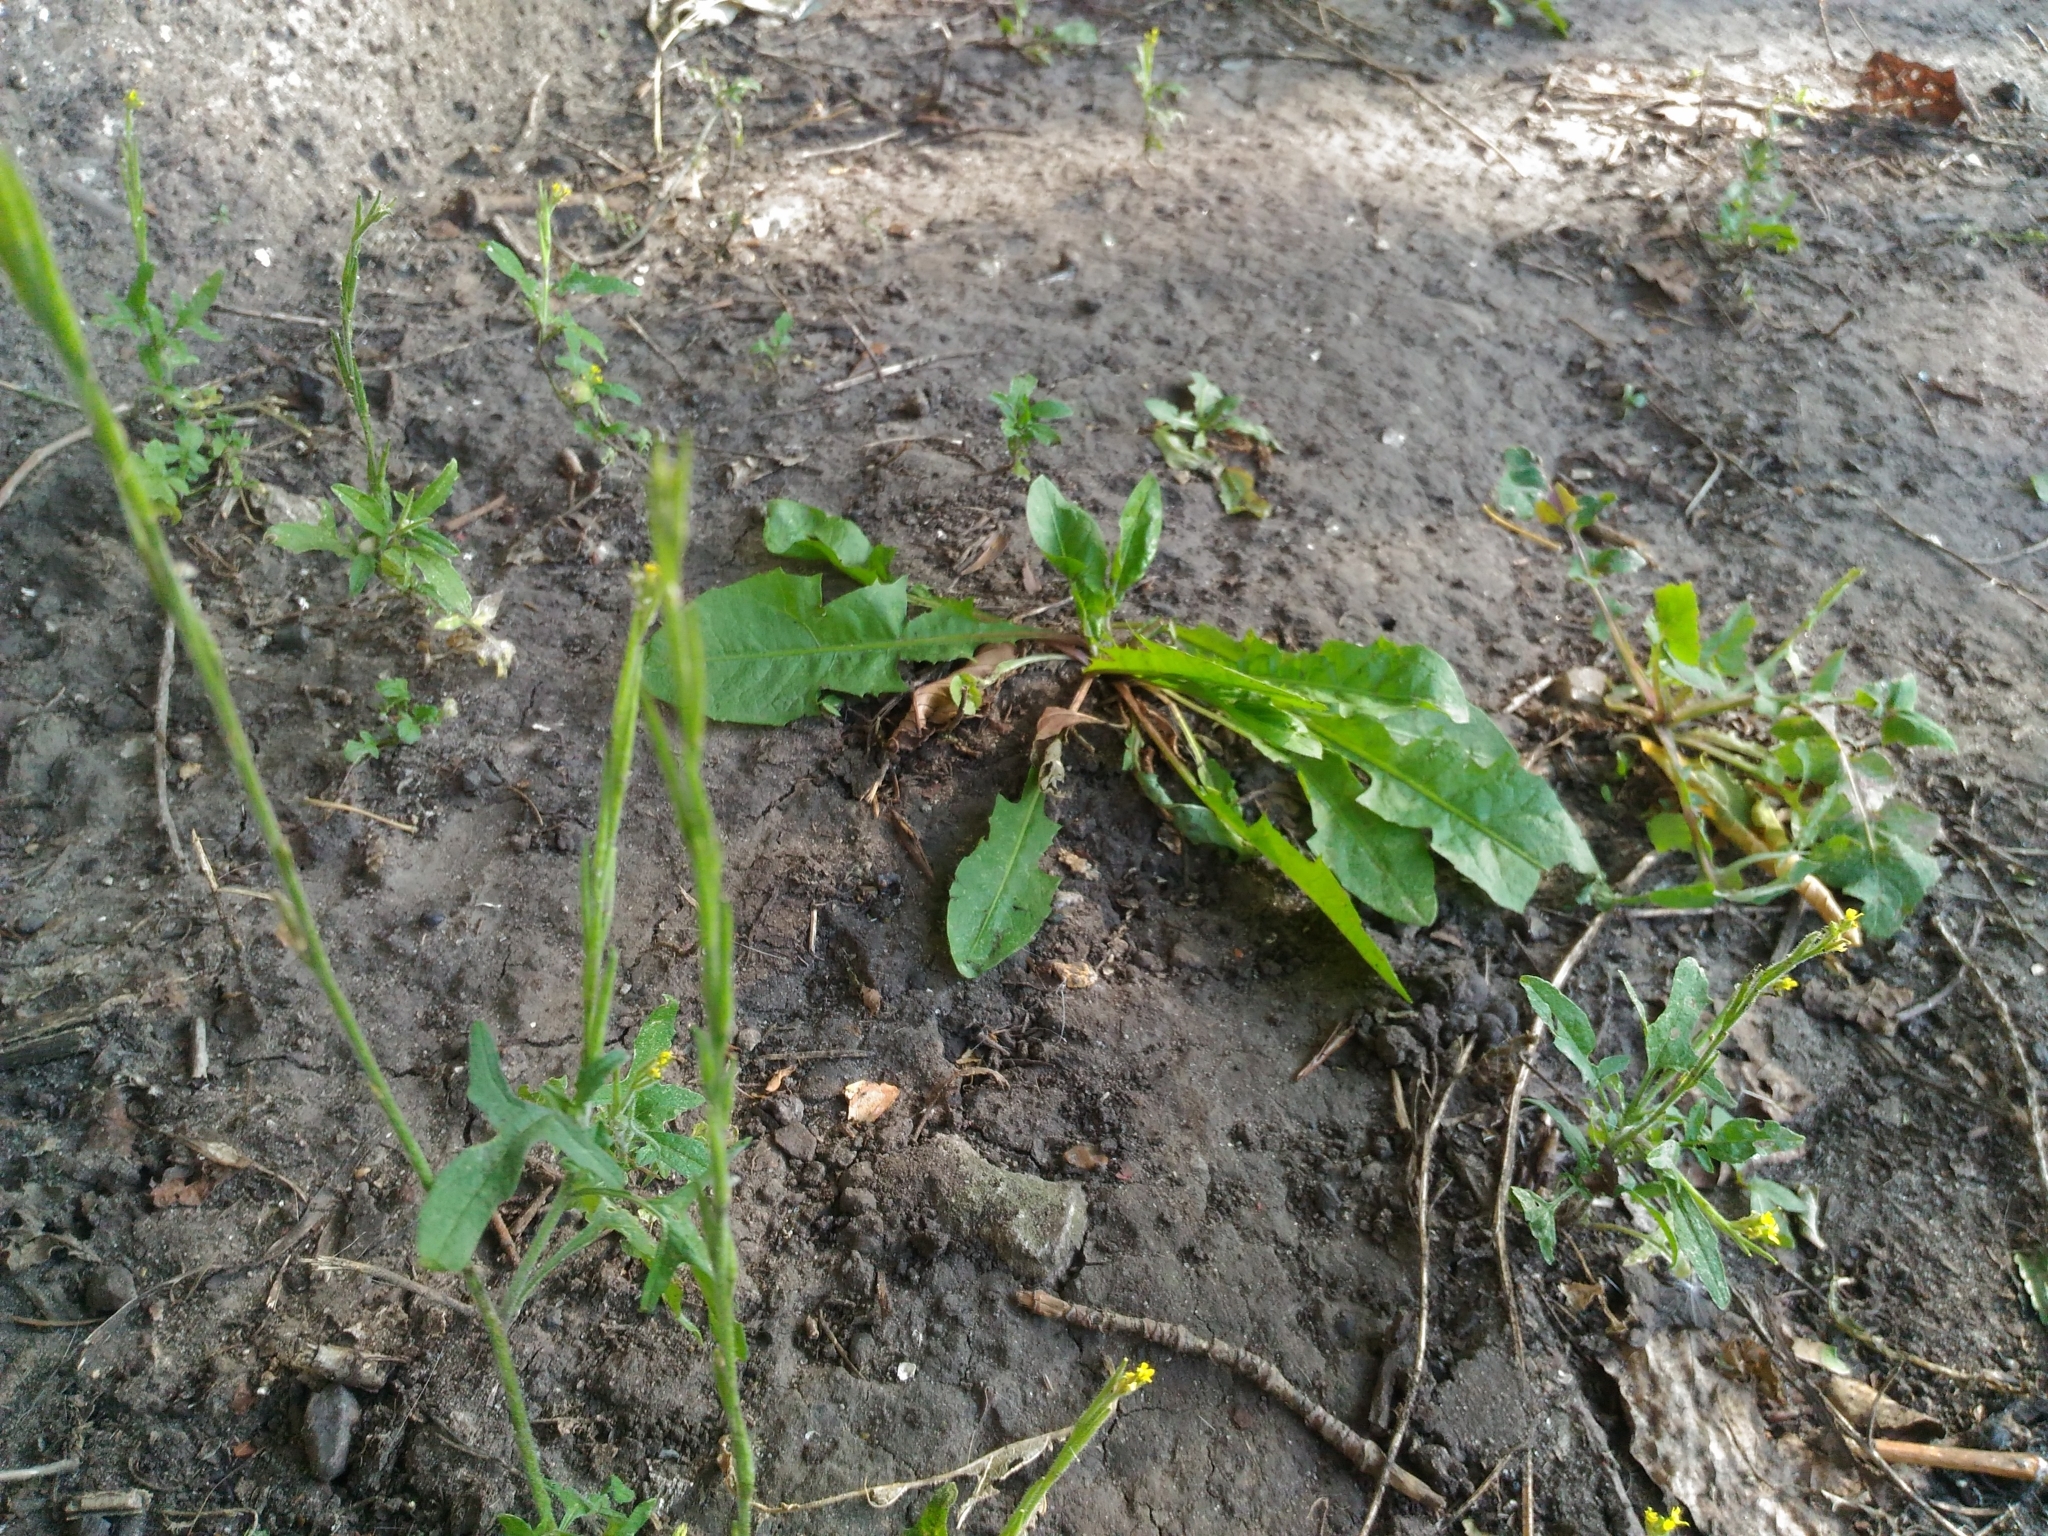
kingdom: Plantae
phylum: Tracheophyta
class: Magnoliopsida
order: Asterales
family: Asteraceae
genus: Taraxacum
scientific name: Taraxacum officinale
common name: Common dandelion
